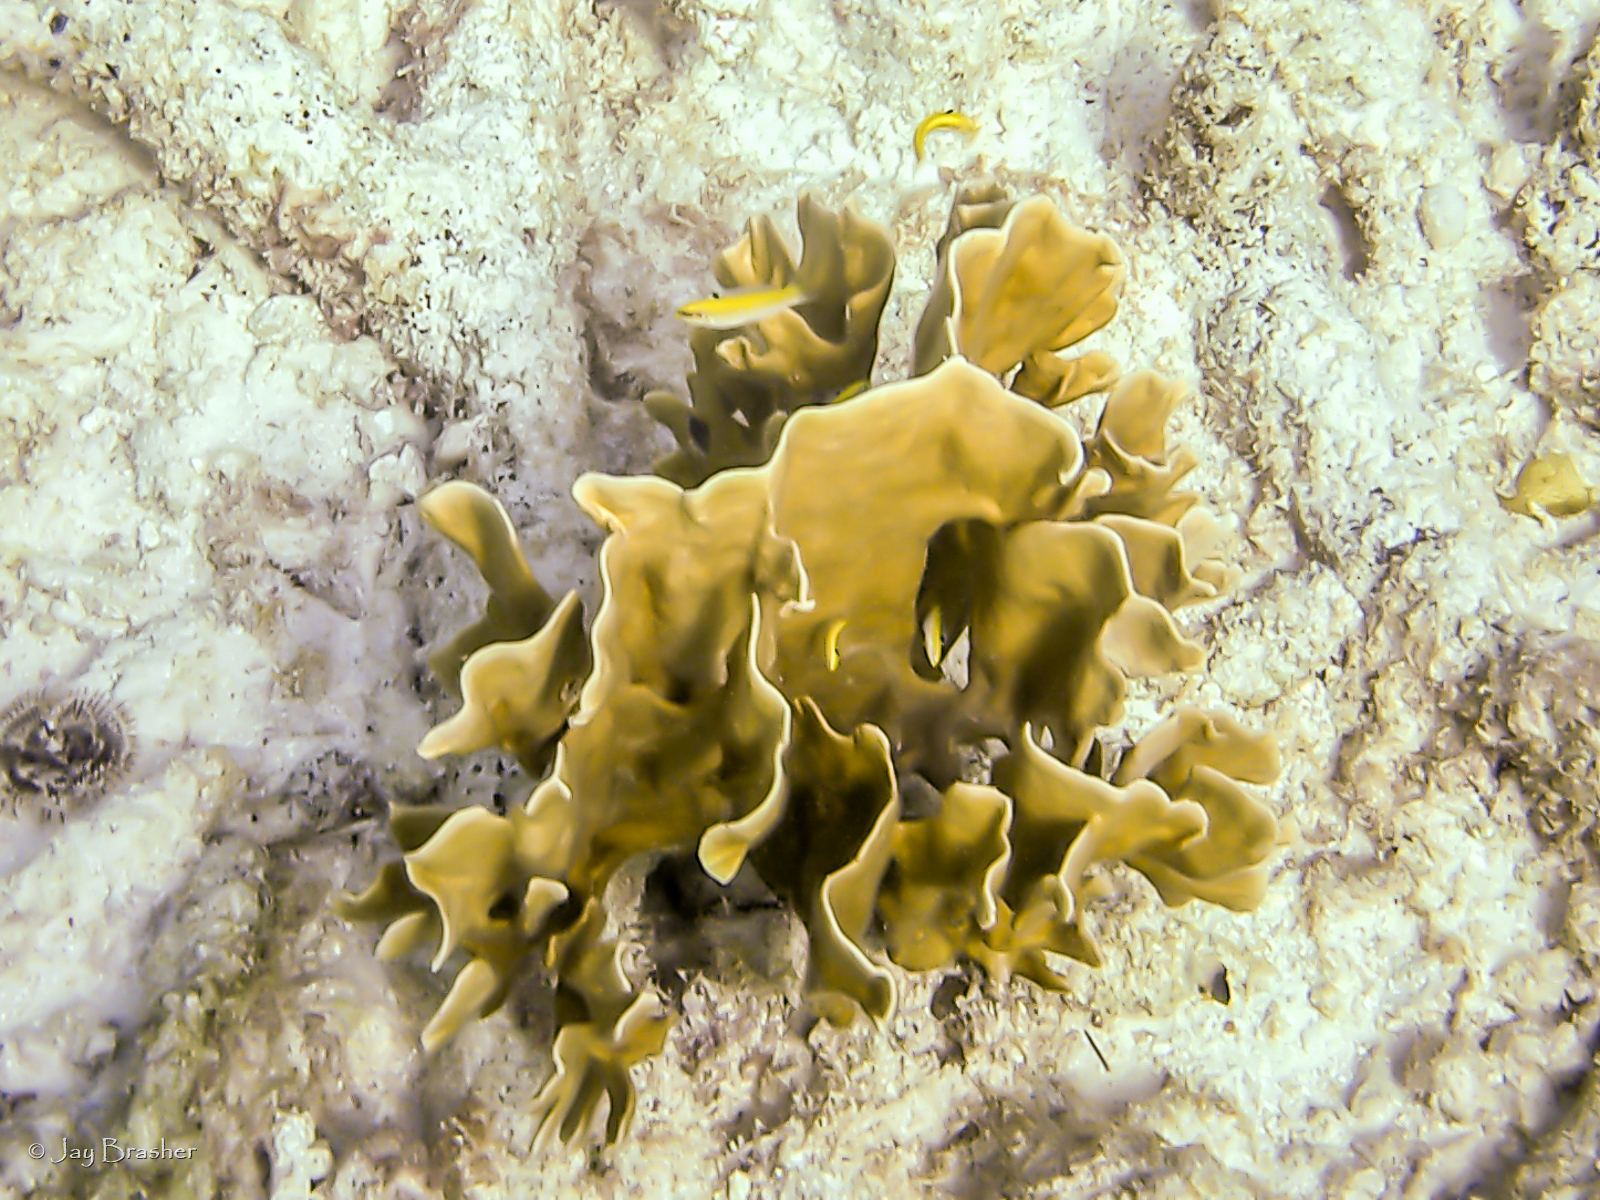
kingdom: Animalia
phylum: Cnidaria
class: Hydrozoa
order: Anthoathecata
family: Milleporidae
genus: Millepora
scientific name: Millepora complanata
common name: Bladed fire coral
